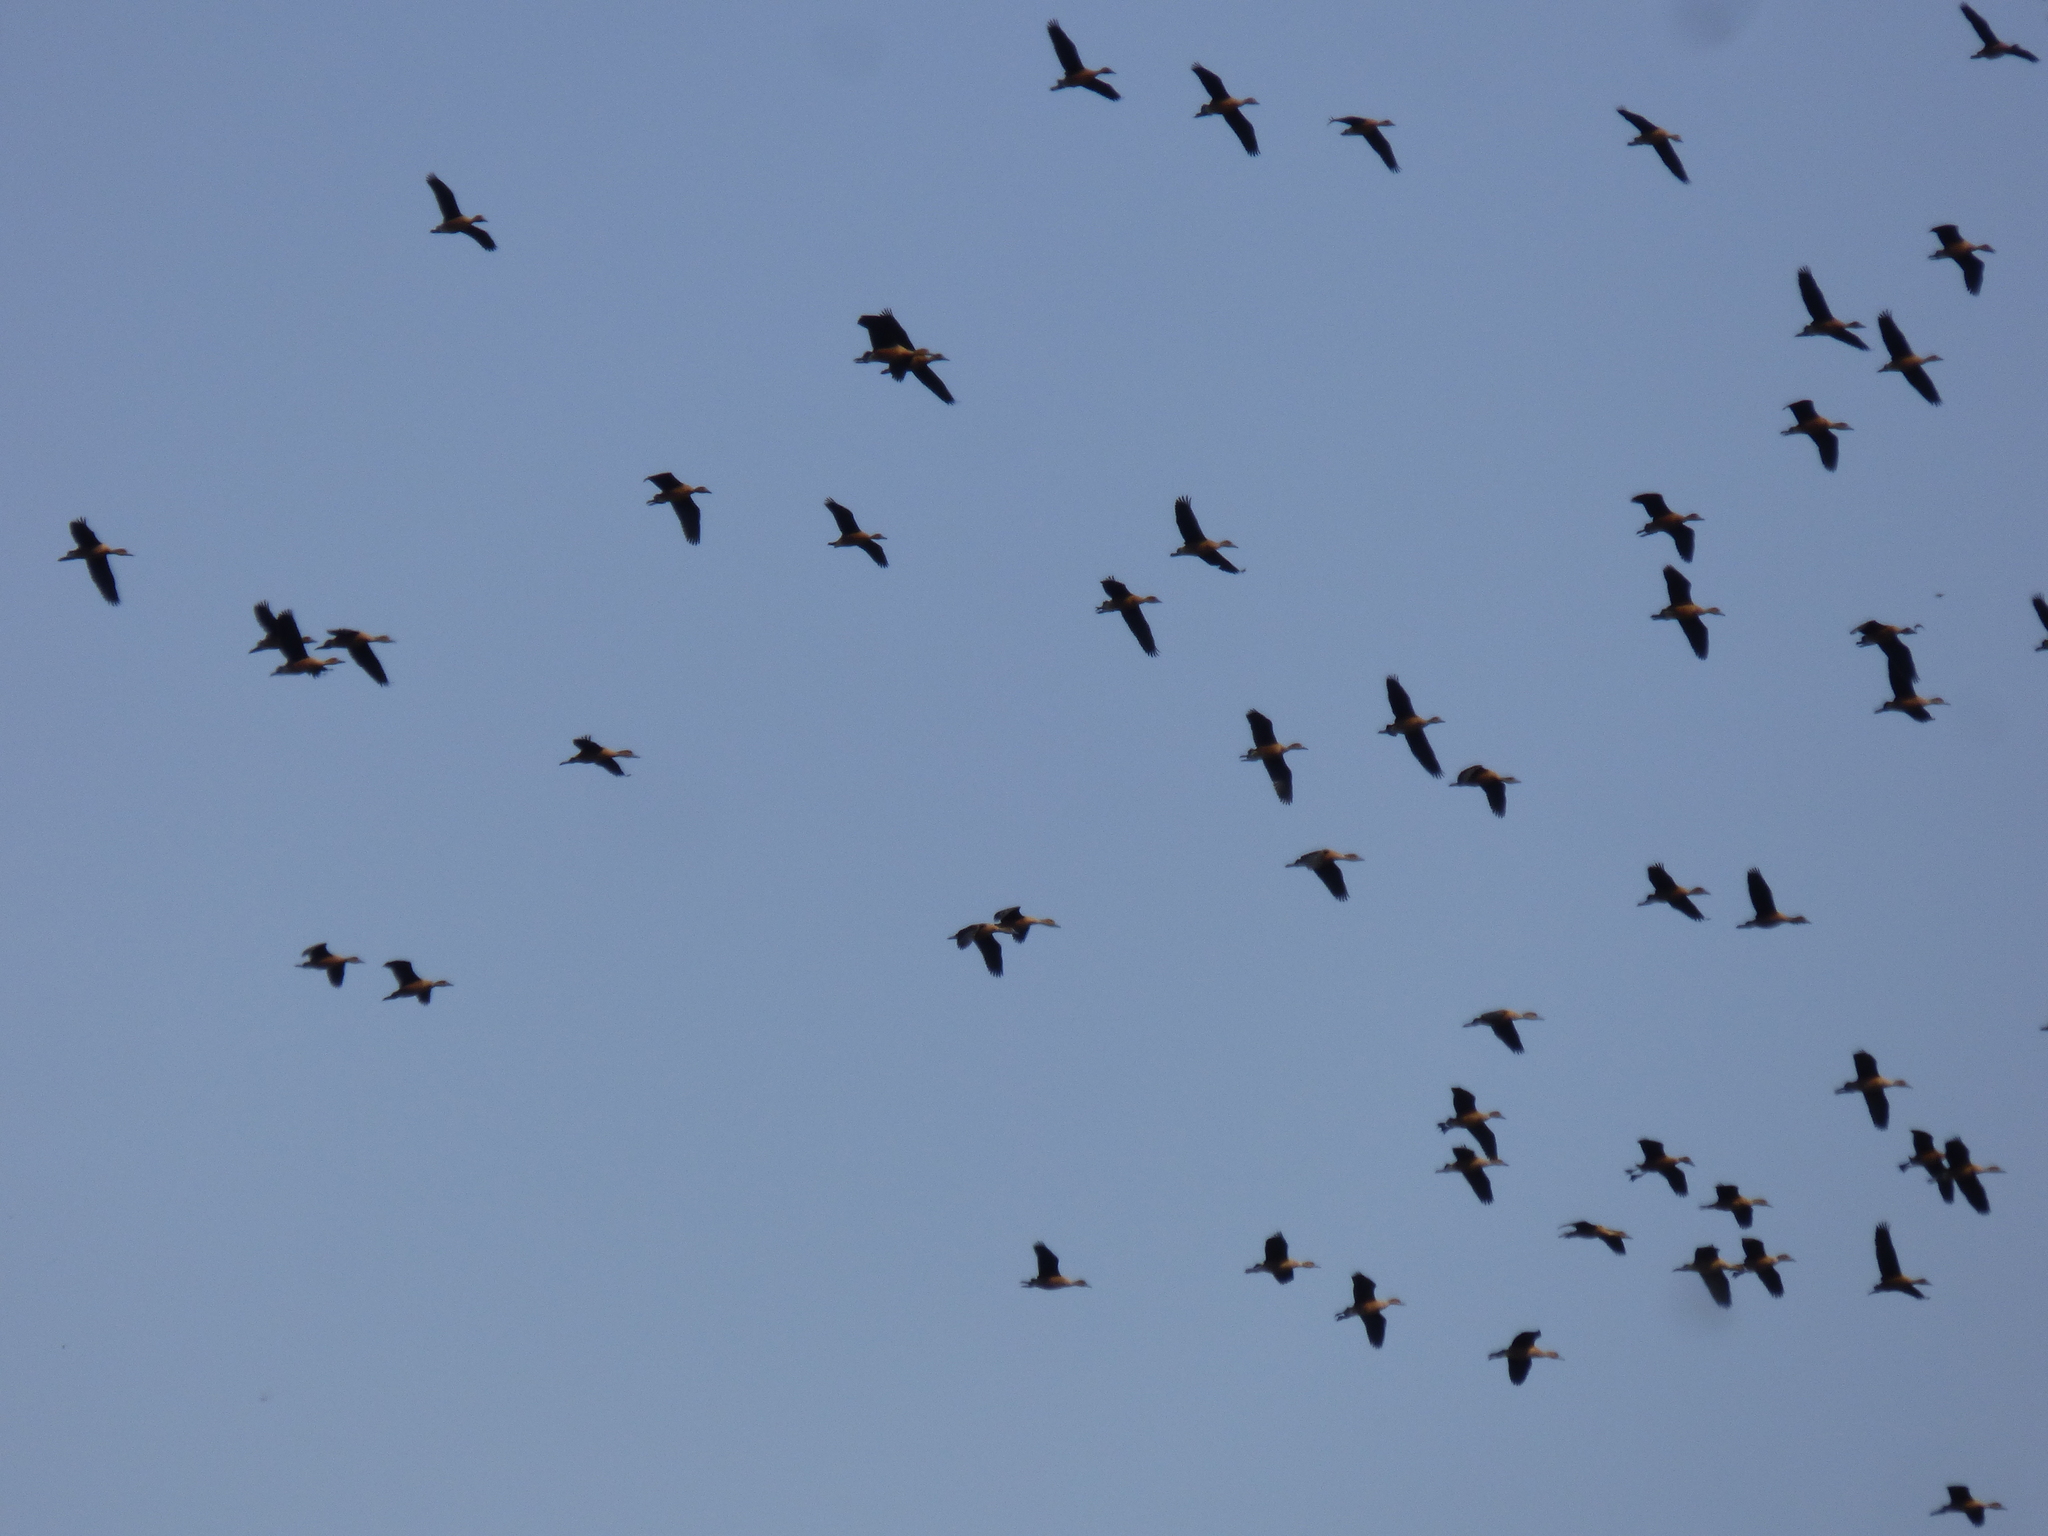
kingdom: Animalia
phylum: Chordata
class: Aves
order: Anseriformes
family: Anatidae
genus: Dendrocygna
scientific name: Dendrocygna bicolor
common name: Fulvous whistling duck
